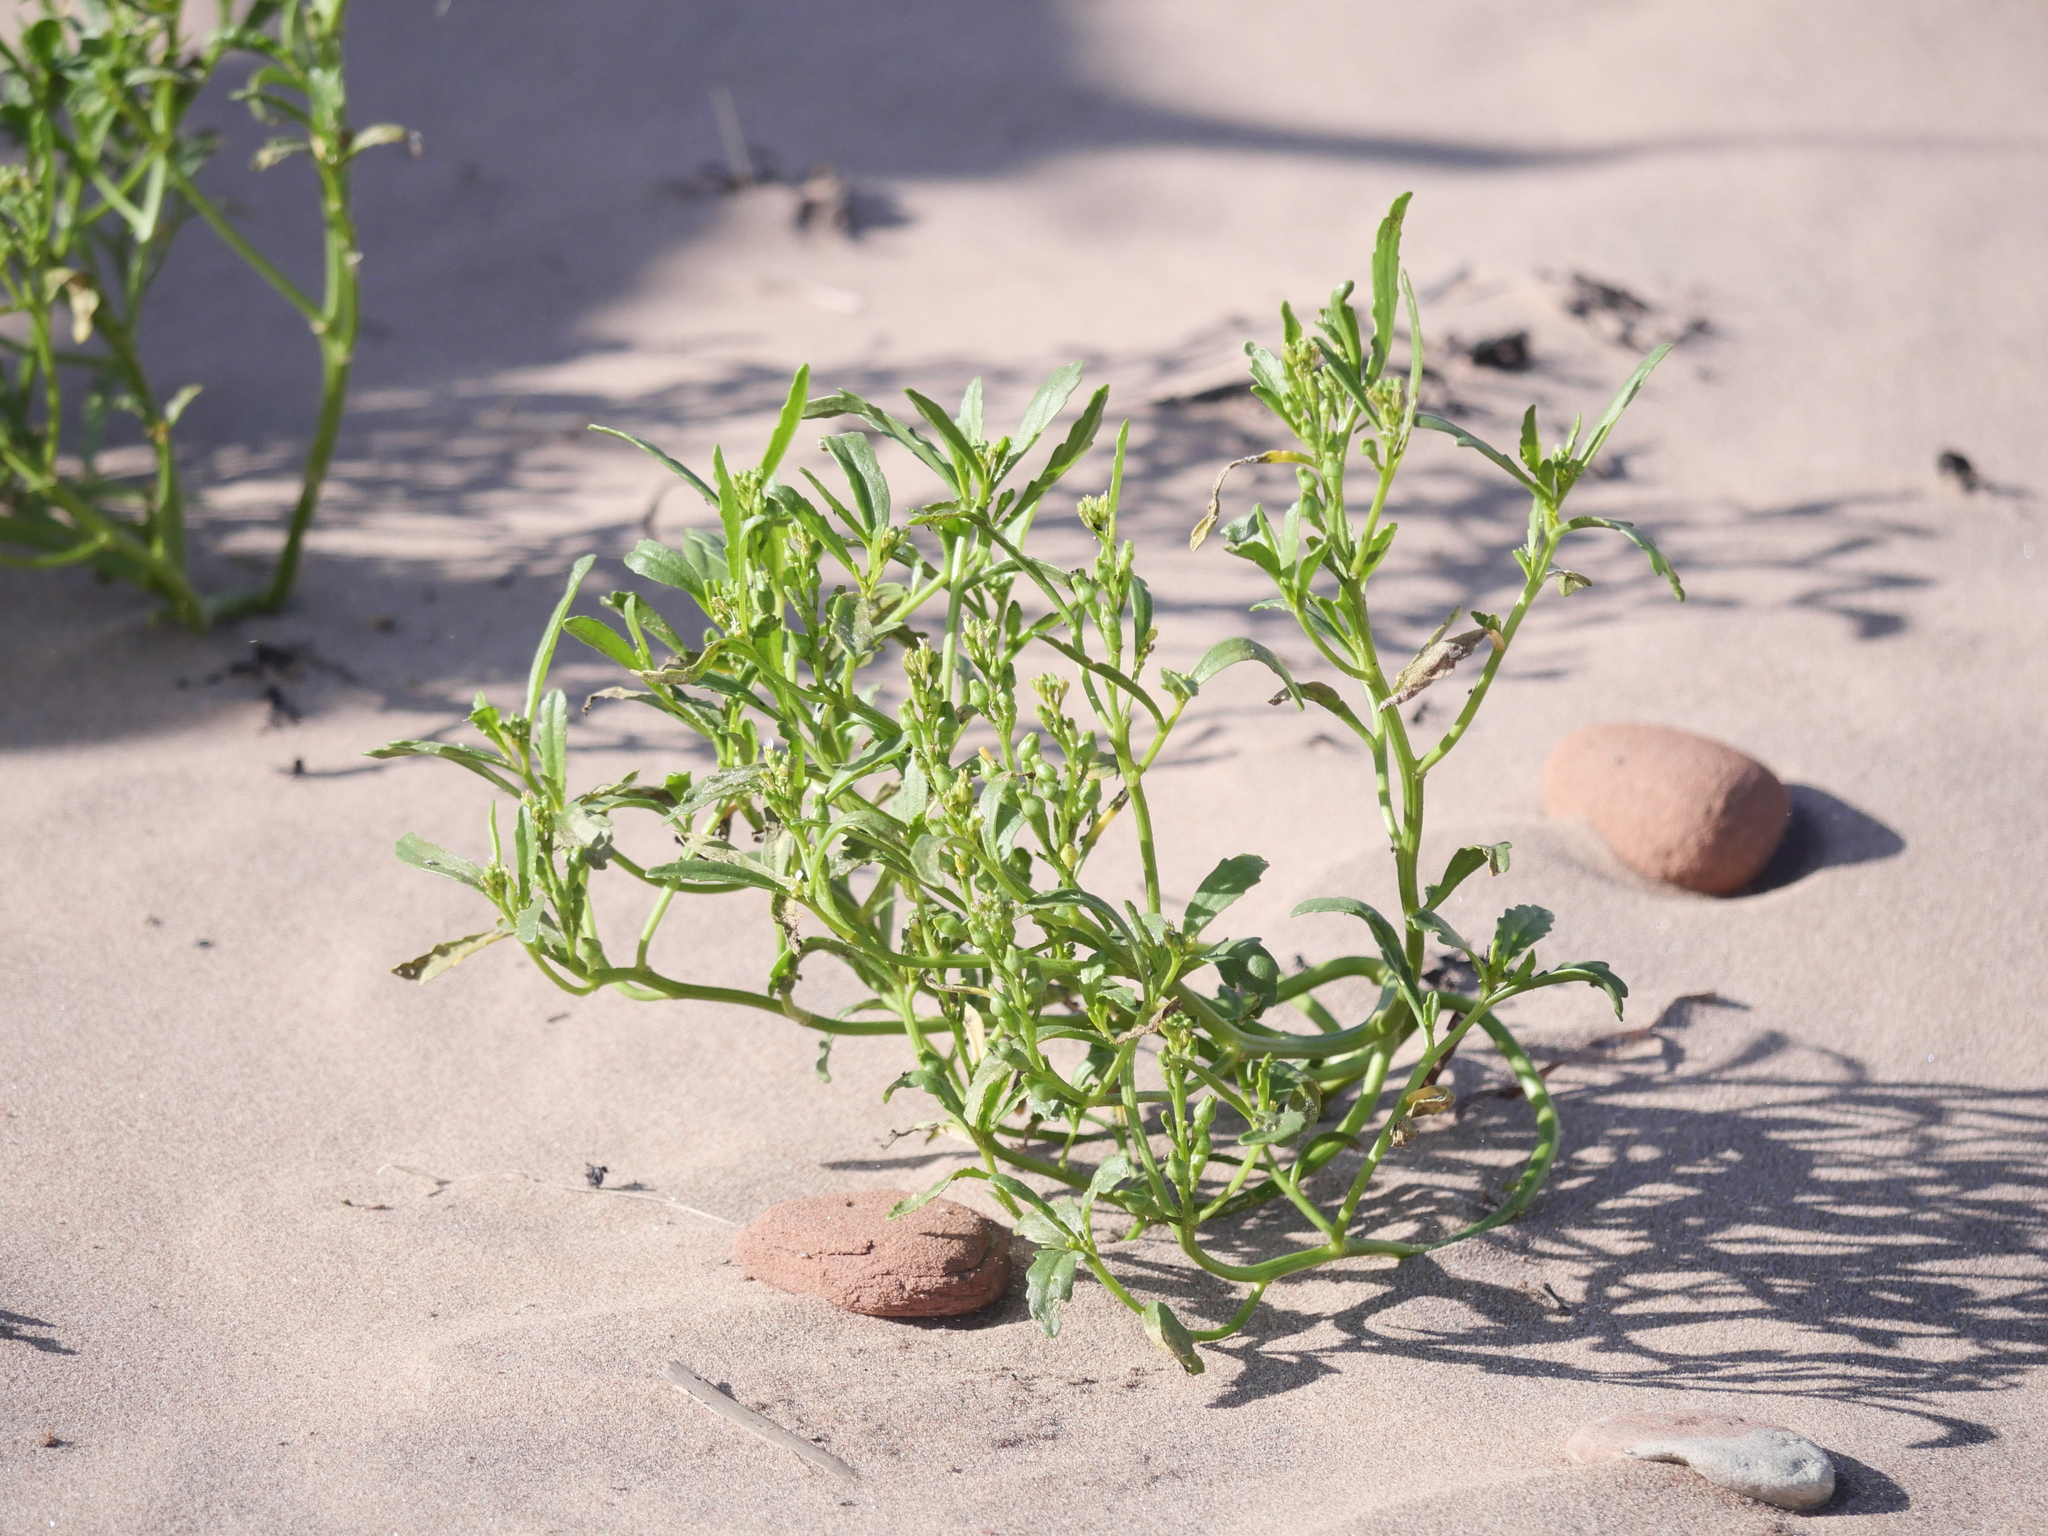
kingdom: Plantae
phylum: Tracheophyta
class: Magnoliopsida
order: Brassicales
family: Brassicaceae
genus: Cakile
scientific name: Cakile edentula
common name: American sea rocket
